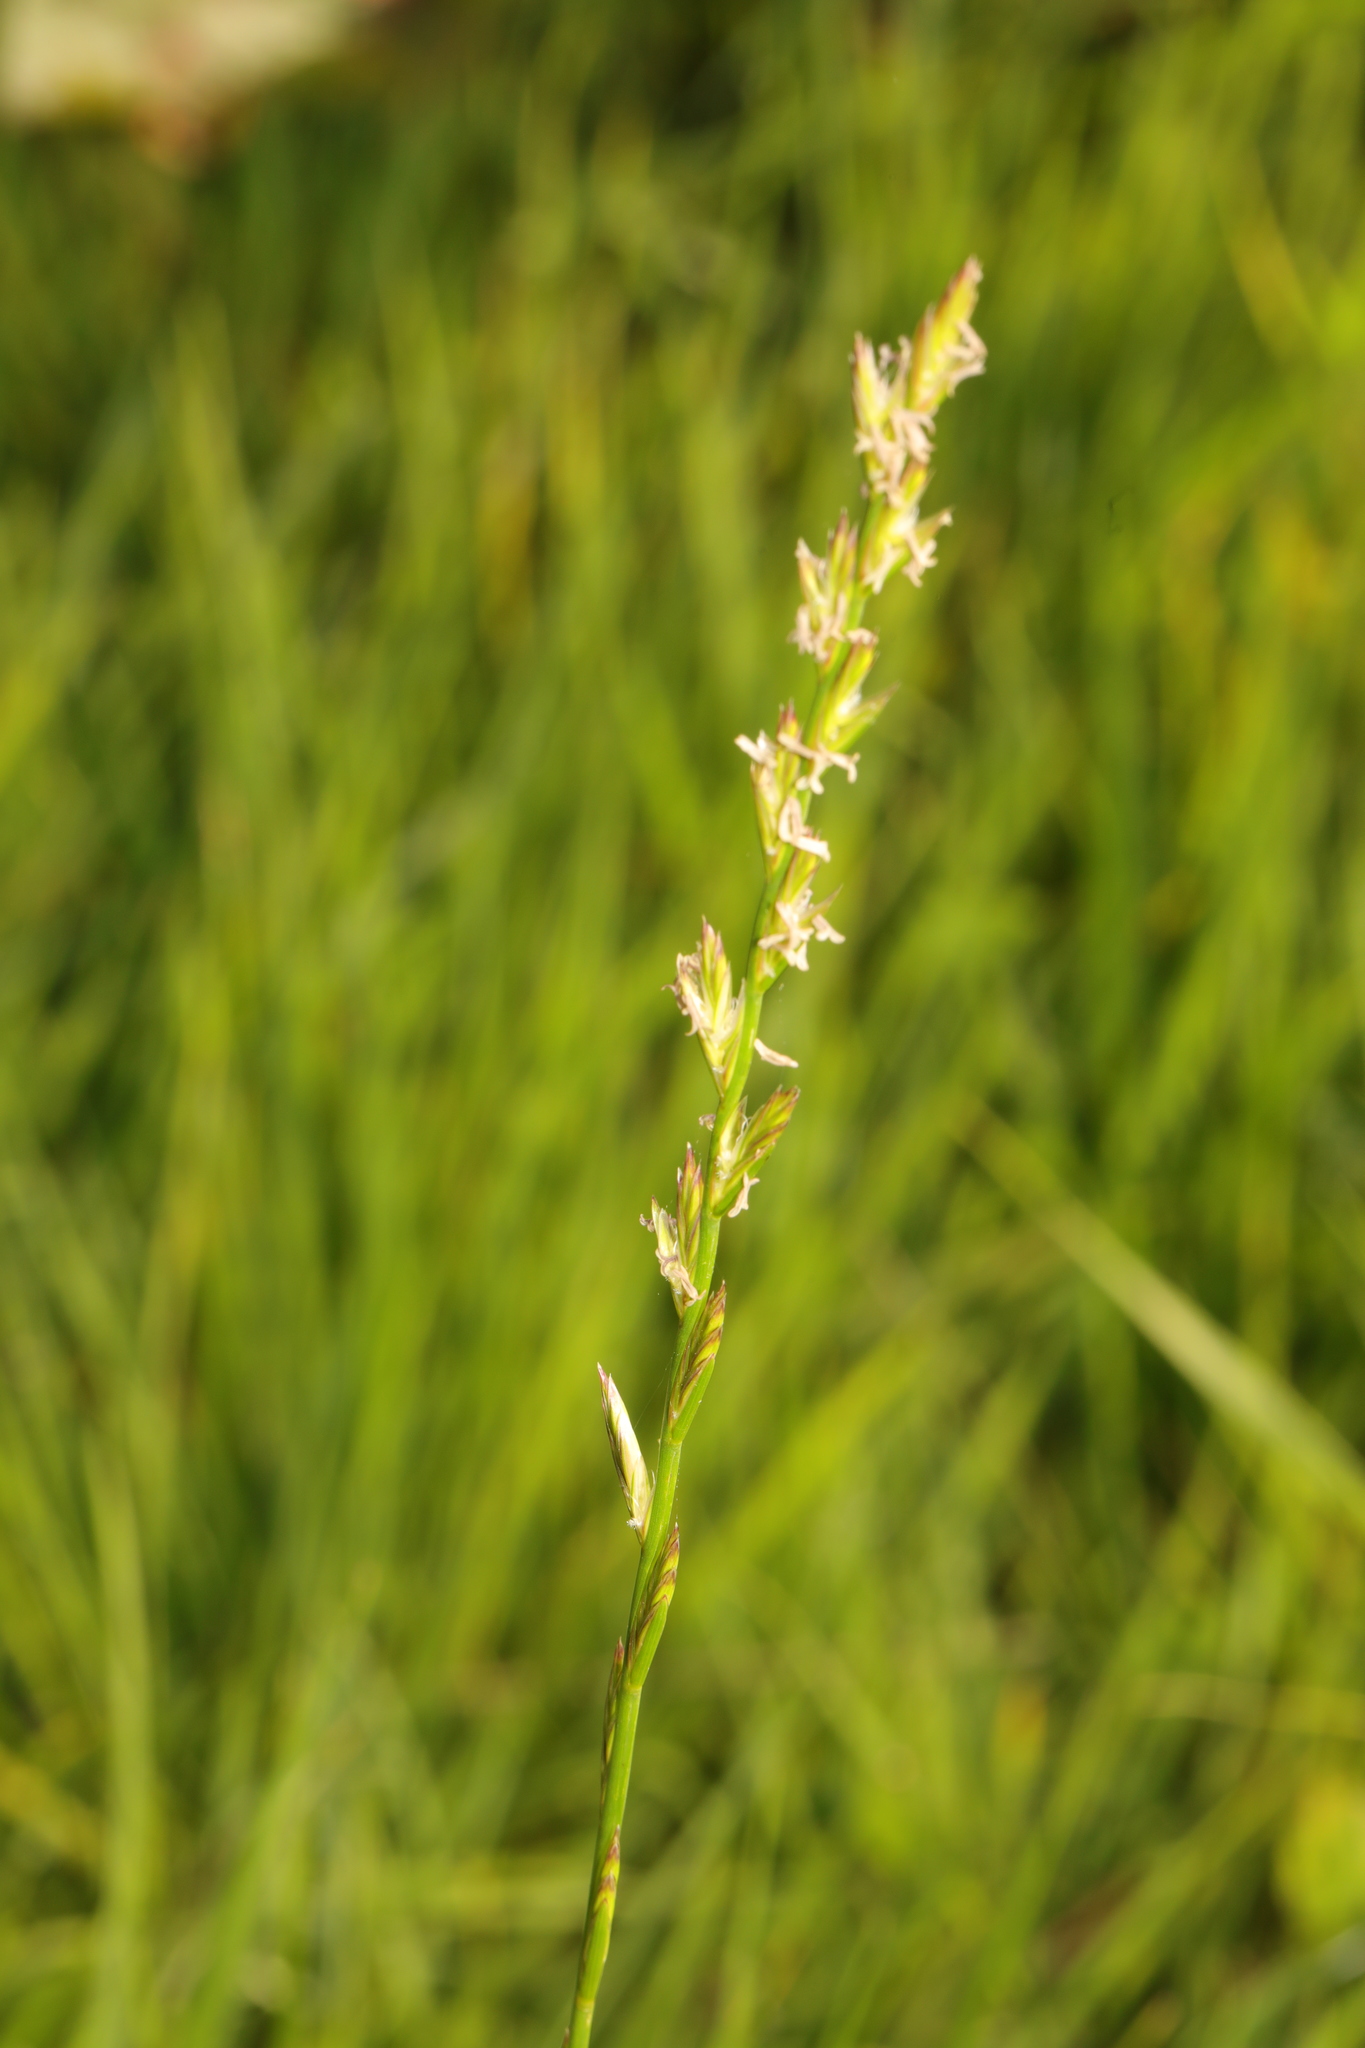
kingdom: Plantae
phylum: Tracheophyta
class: Liliopsida
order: Poales
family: Poaceae
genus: Lolium
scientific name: Lolium perenne
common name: Perennial ryegrass
